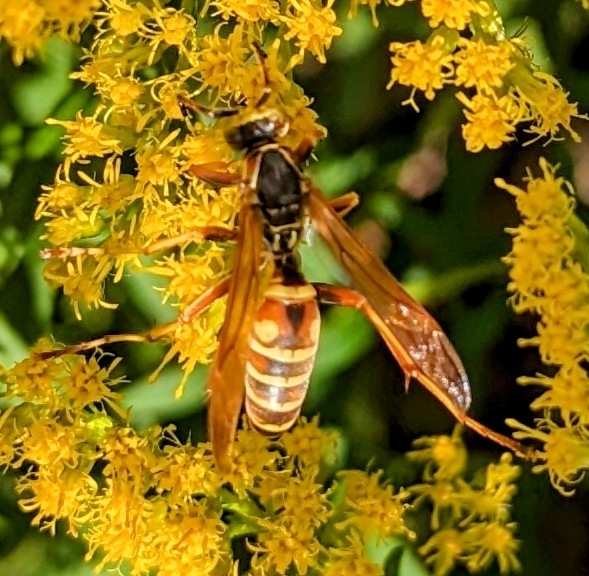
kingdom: Animalia
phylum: Arthropoda
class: Insecta
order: Hymenoptera
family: Eumenidae
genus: Polistes
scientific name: Polistes fuscatus
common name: Dark paper wasp
